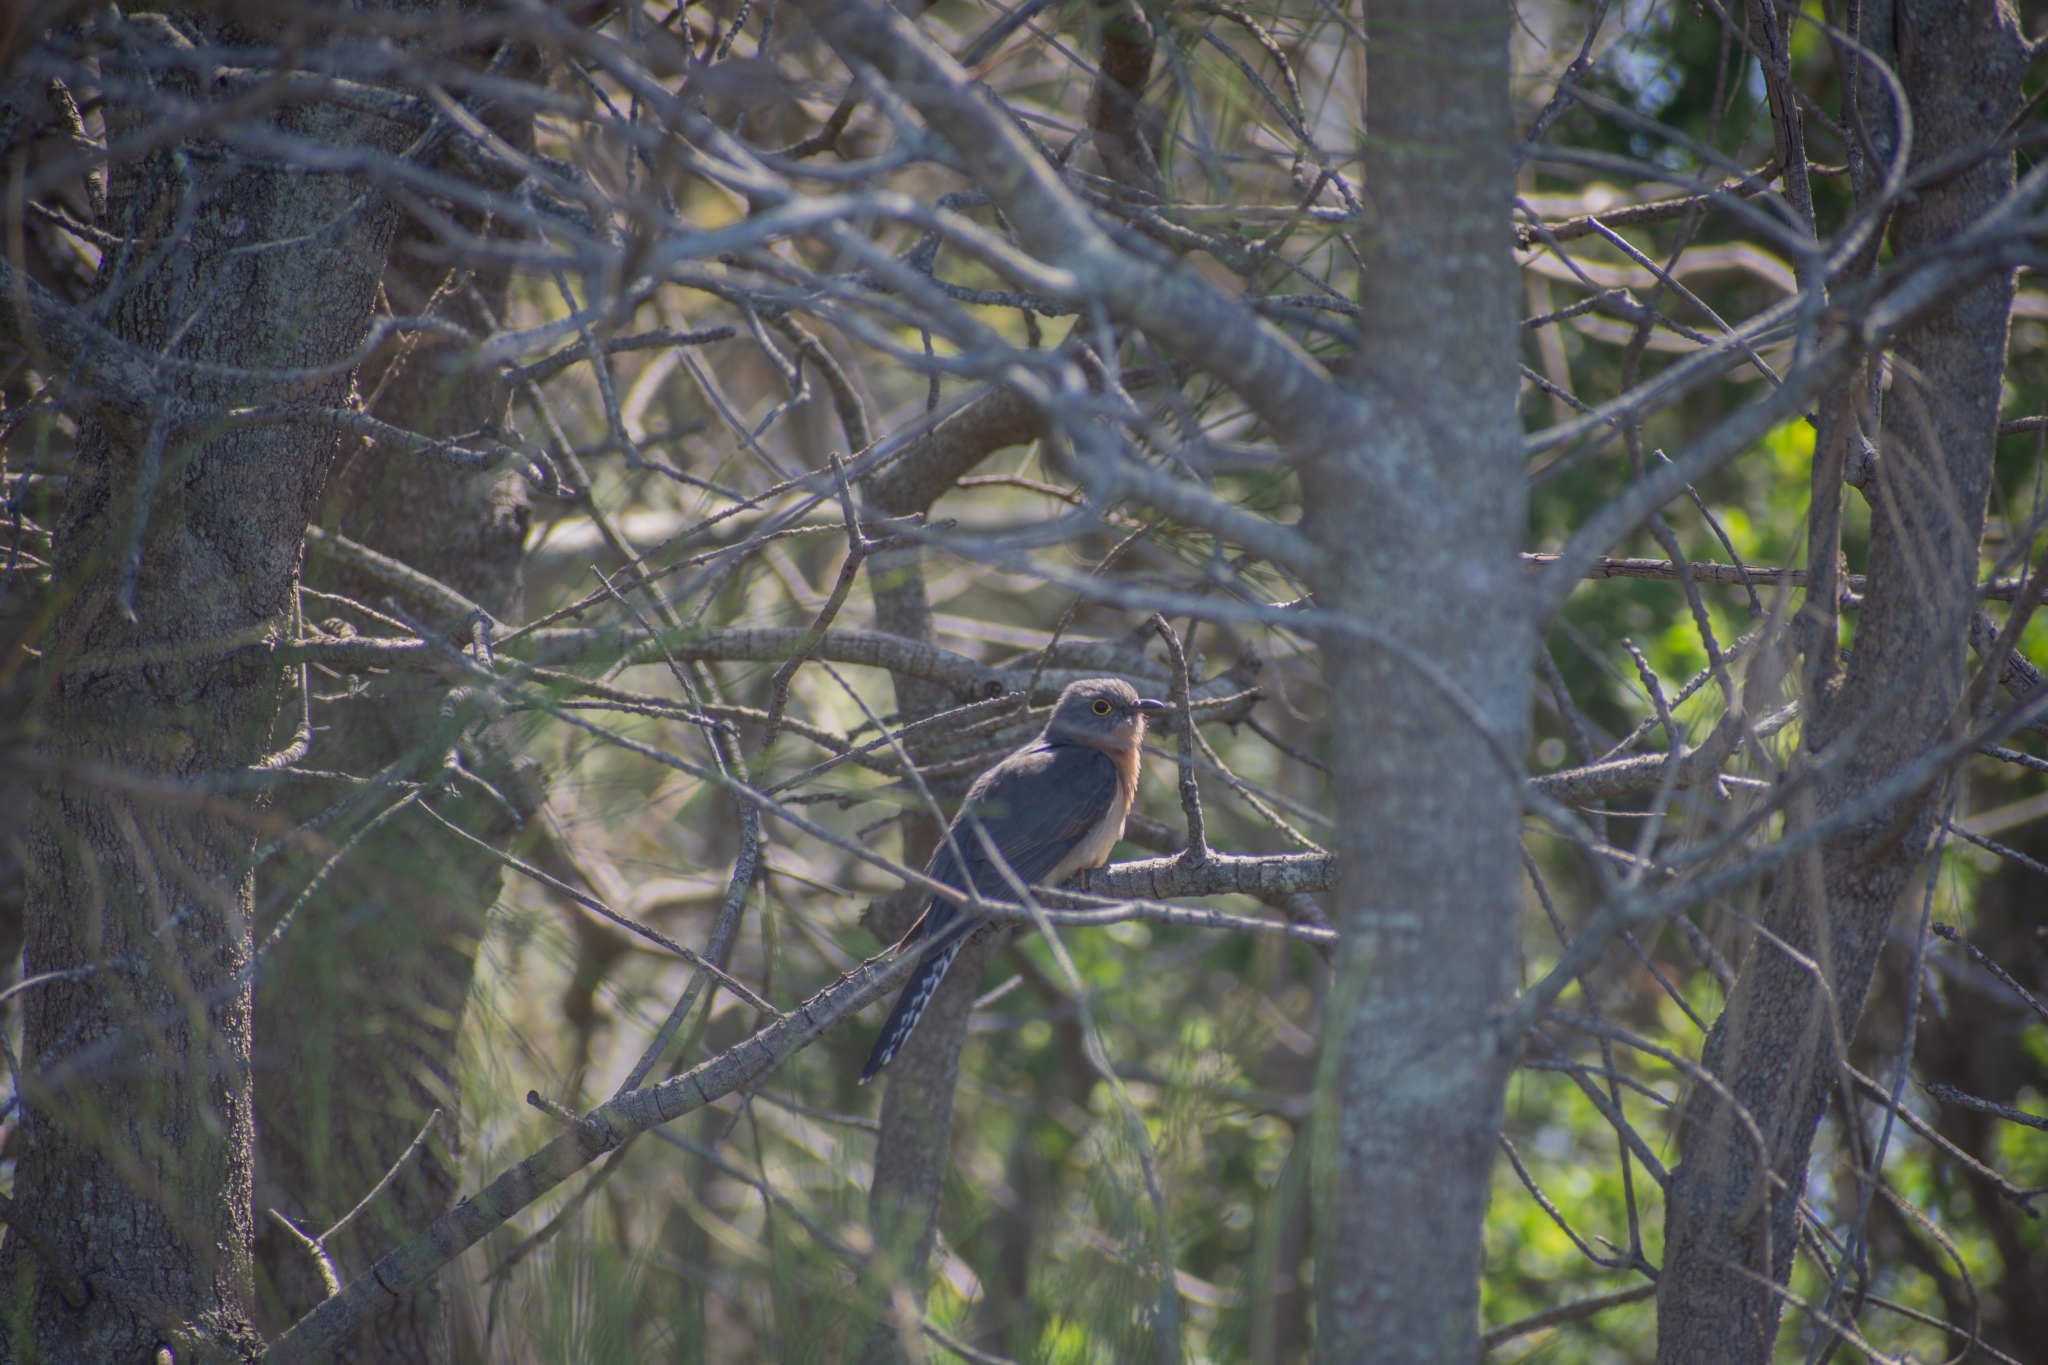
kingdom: Animalia
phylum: Chordata
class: Aves
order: Cuculiformes
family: Cuculidae
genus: Cacomantis
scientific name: Cacomantis flabelliformis
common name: Fan-tailed cuckoo
